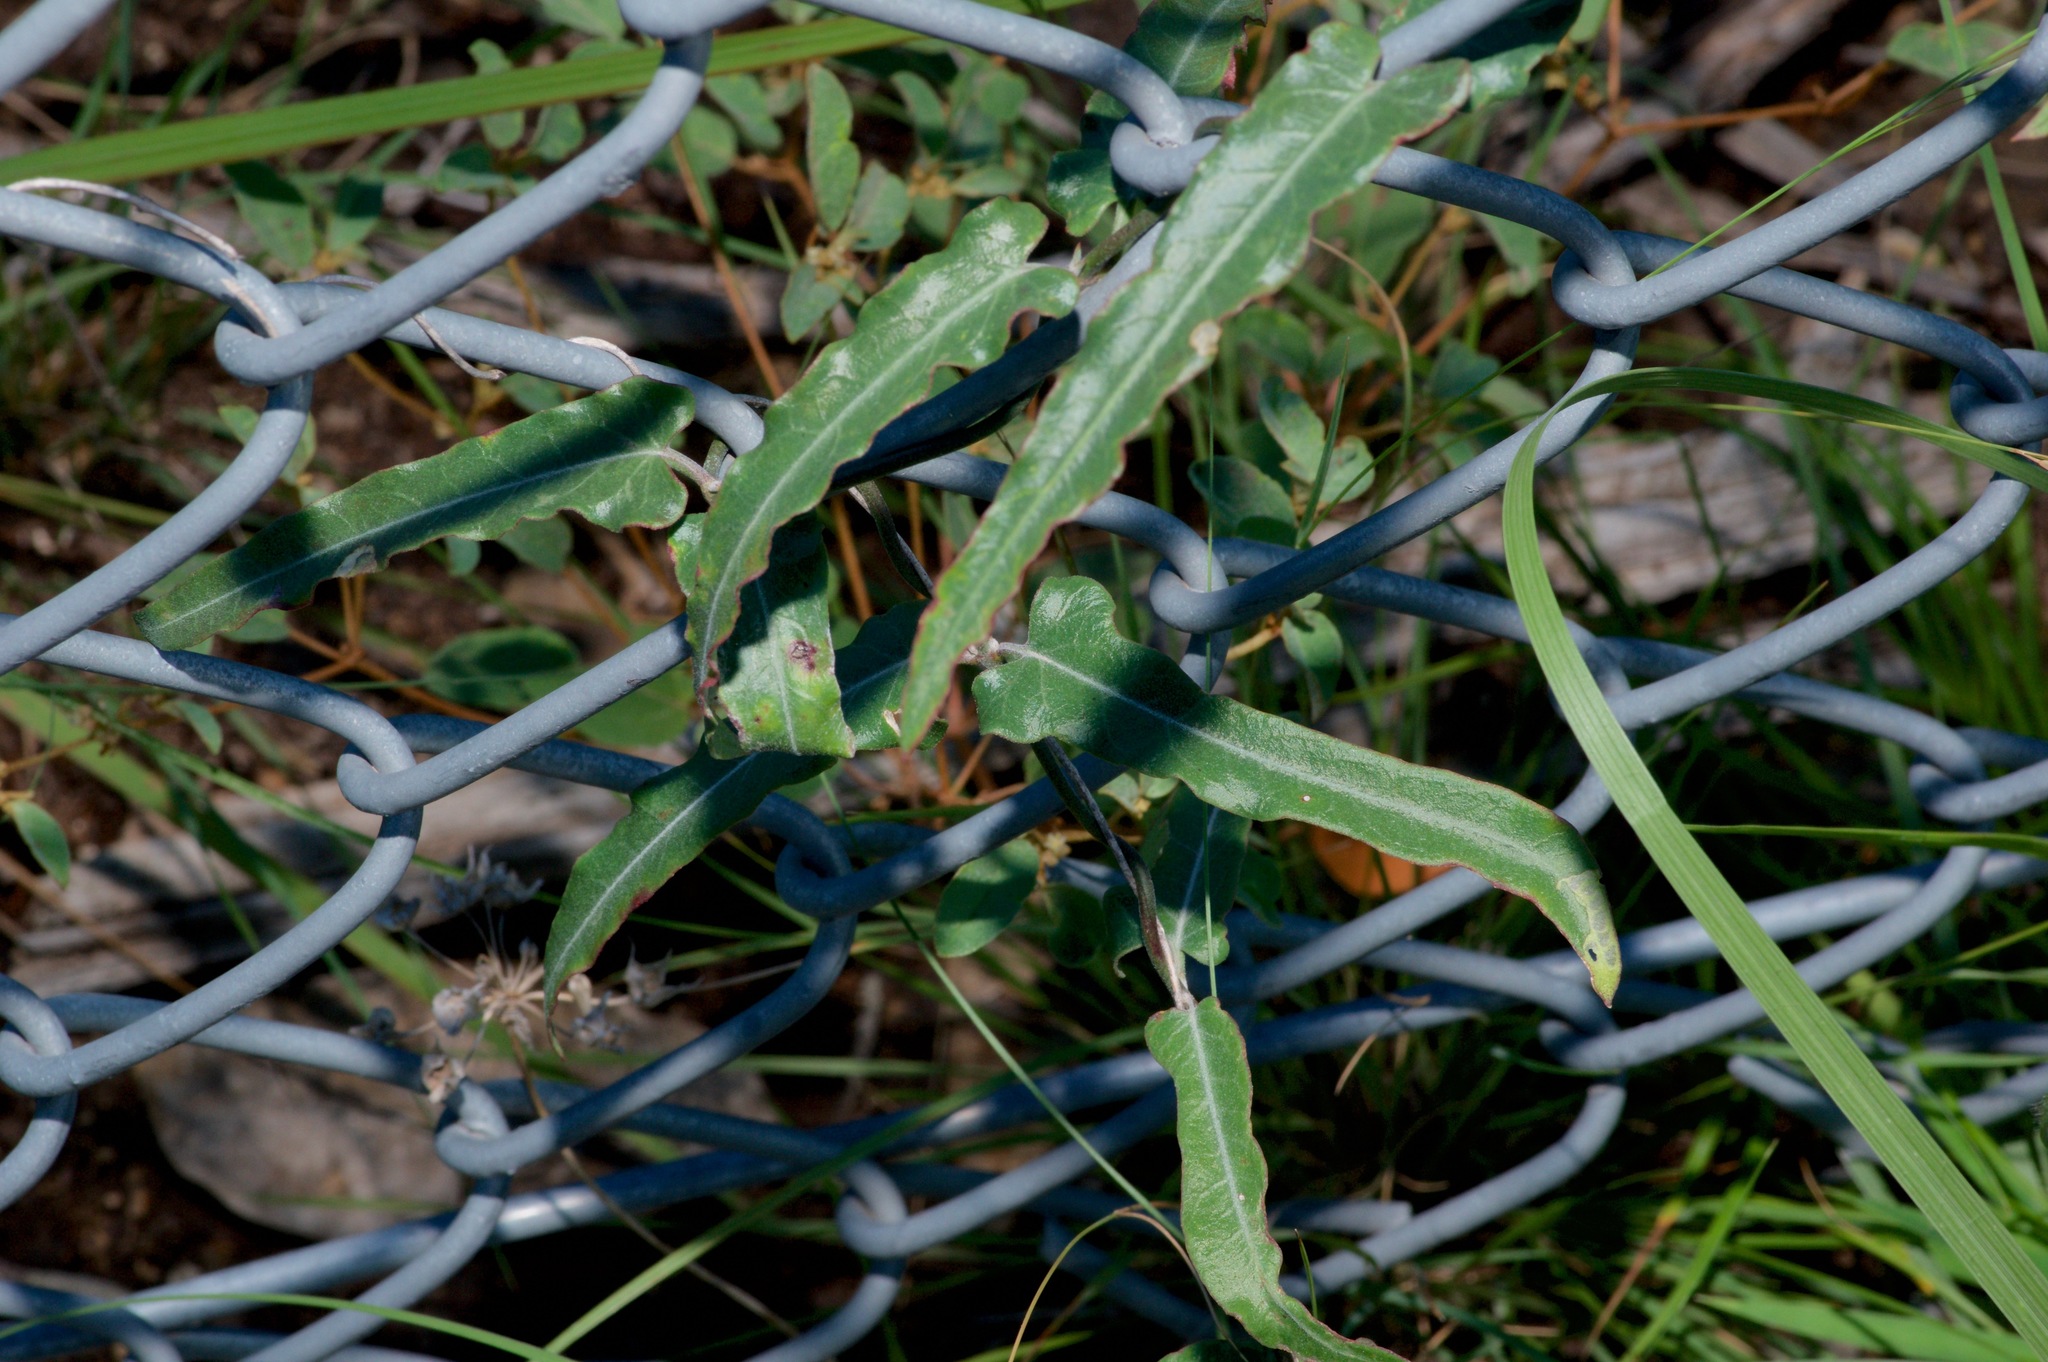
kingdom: Plantae
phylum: Tracheophyta
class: Magnoliopsida
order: Gentianales
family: Apocynaceae
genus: Funastrum
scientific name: Funastrum crispum
